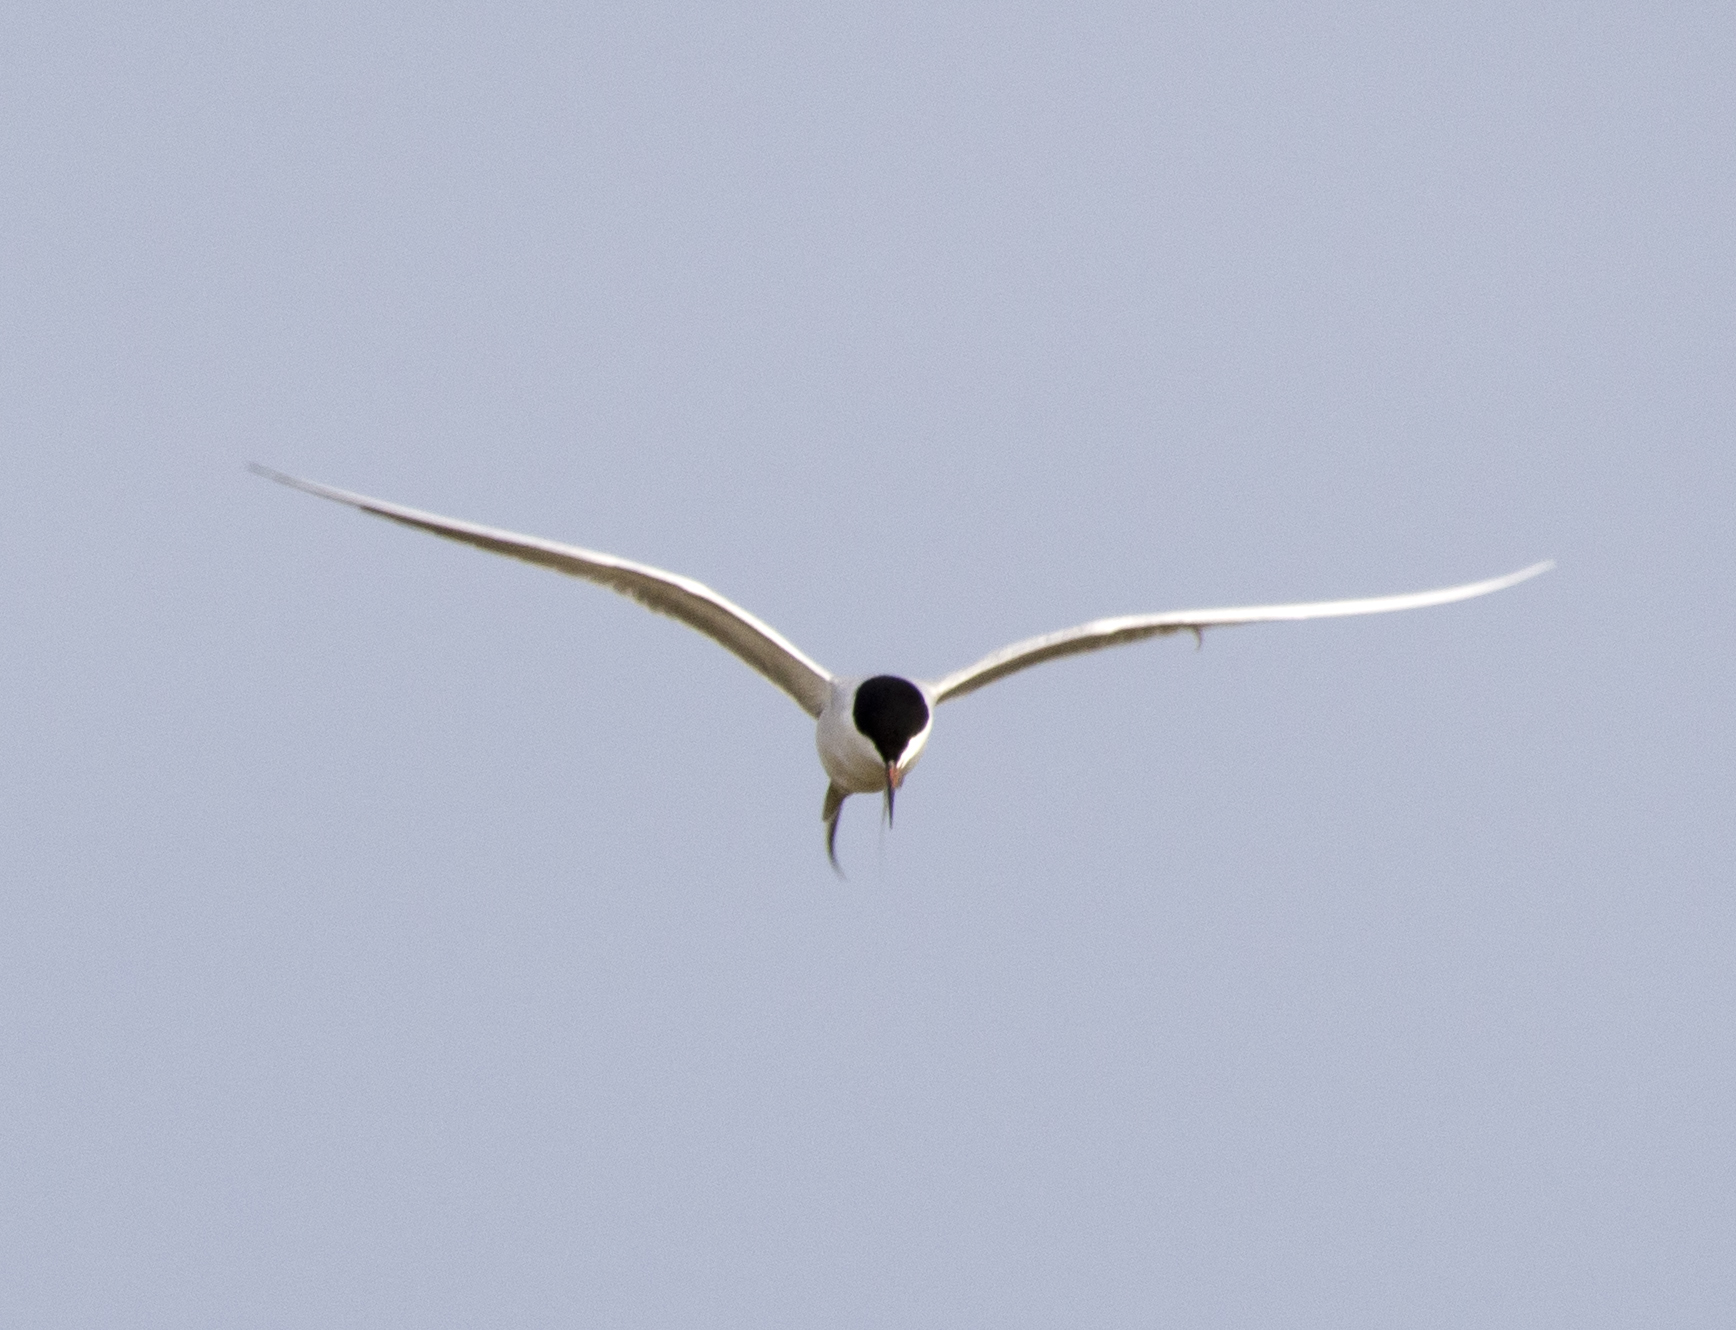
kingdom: Animalia
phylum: Chordata
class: Aves
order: Charadriiformes
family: Laridae
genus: Sterna
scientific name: Sterna forsteri
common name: Forster's tern
